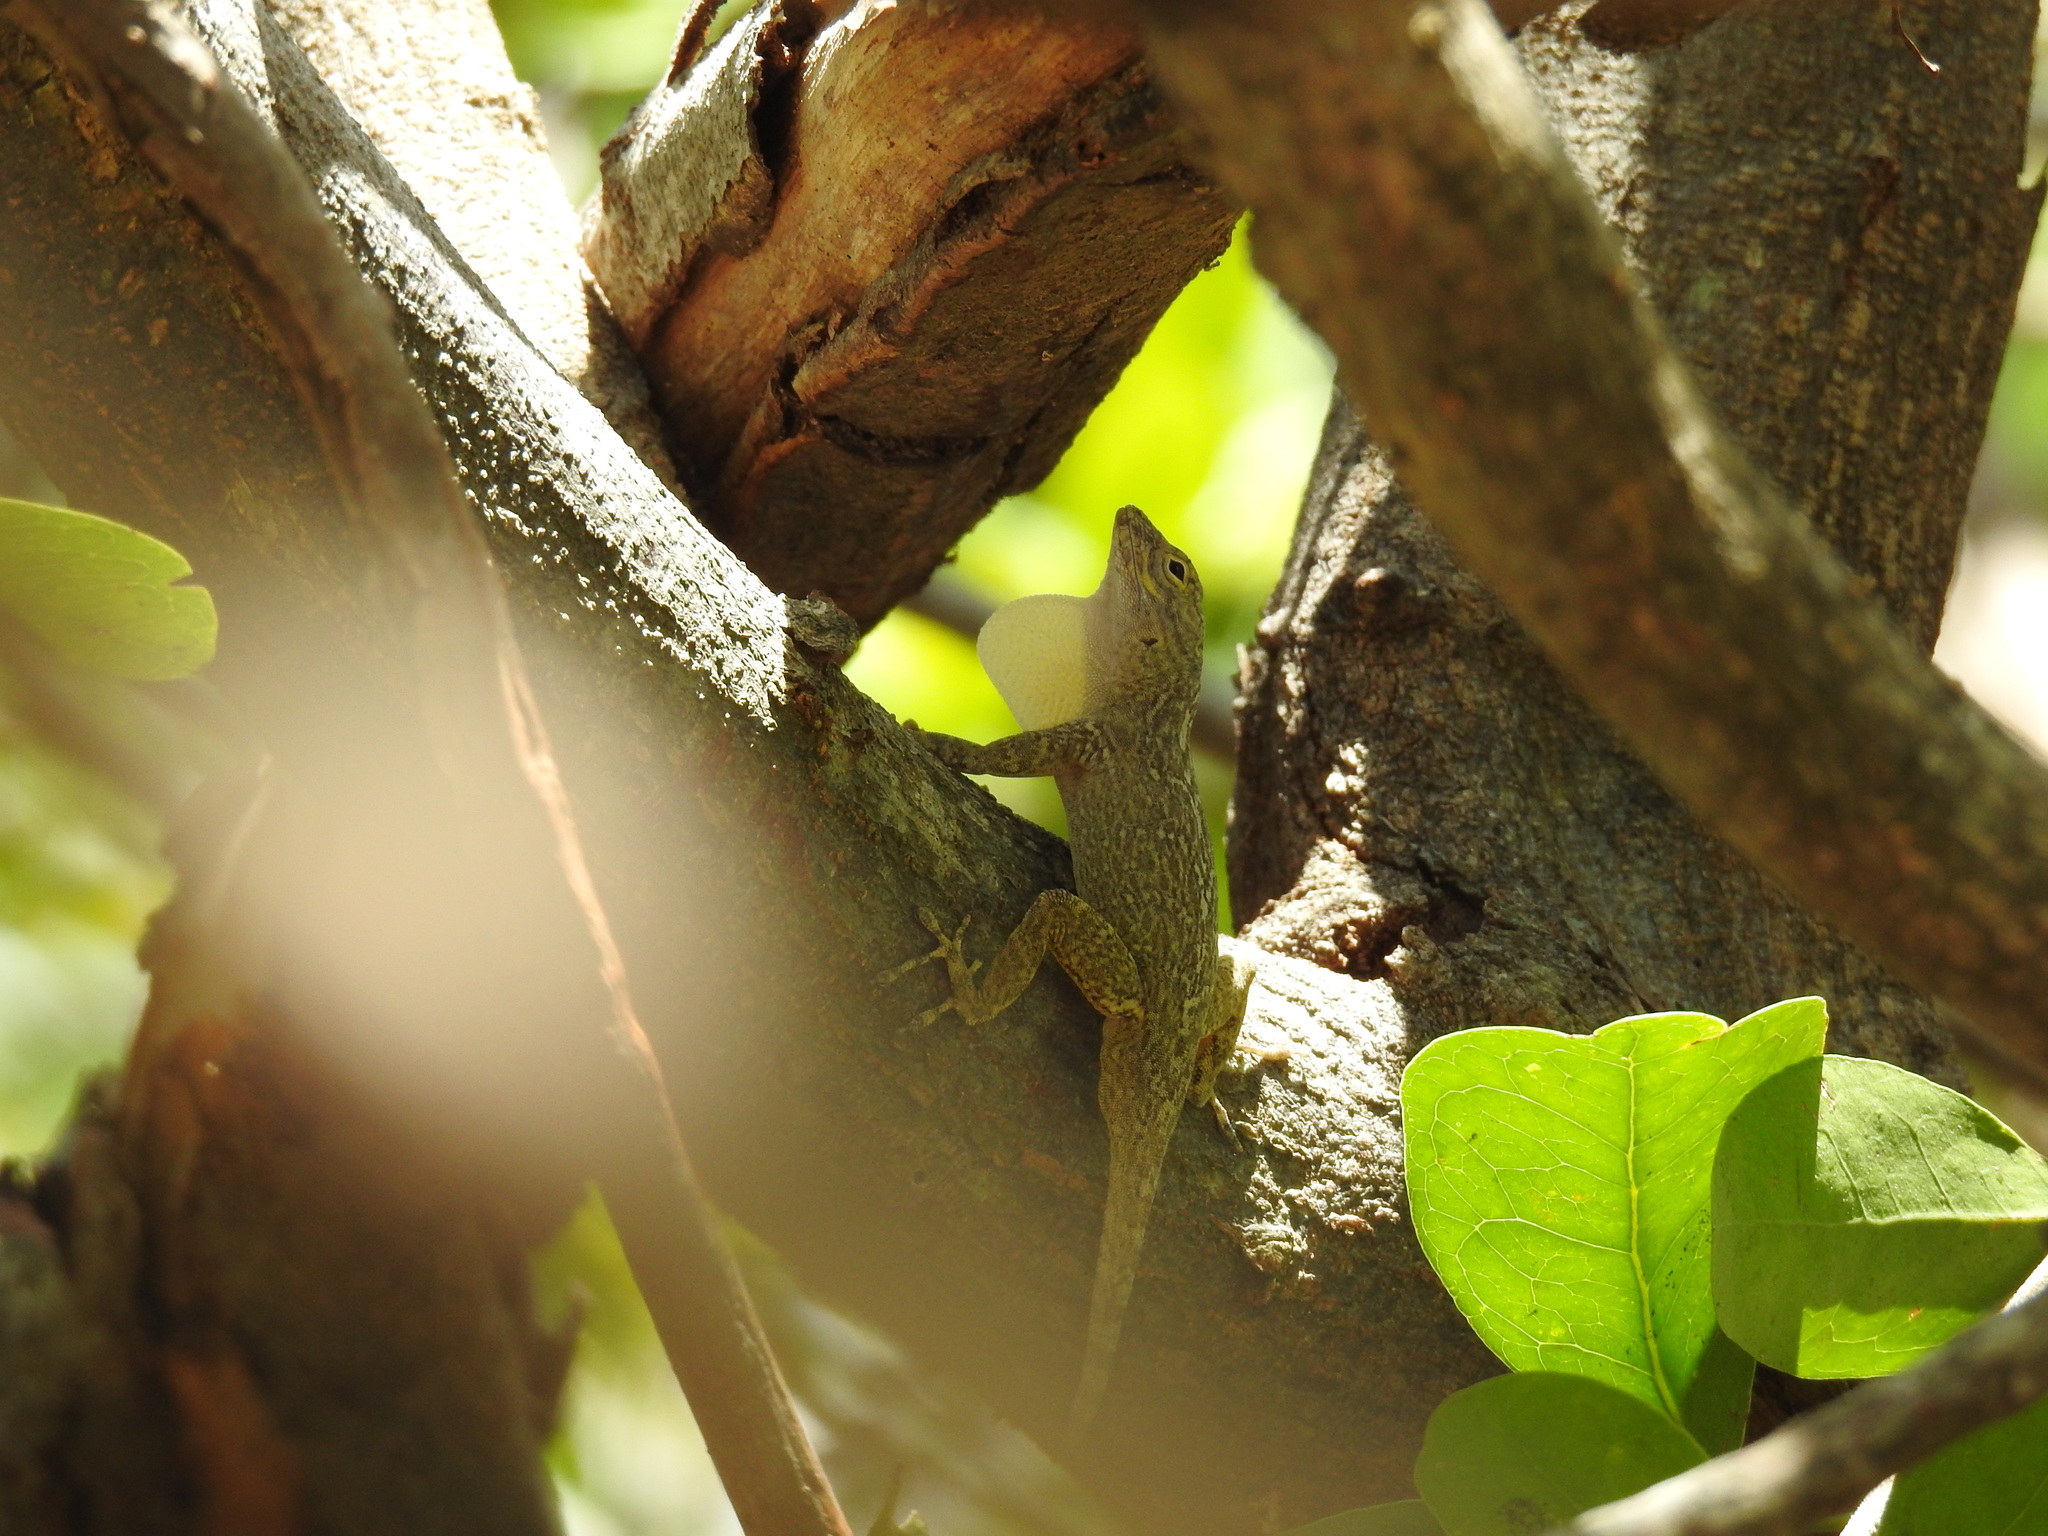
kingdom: Animalia
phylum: Chordata
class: Squamata
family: Dactyloidae
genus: Anolis
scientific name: Anolis distichus
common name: Bark anole
